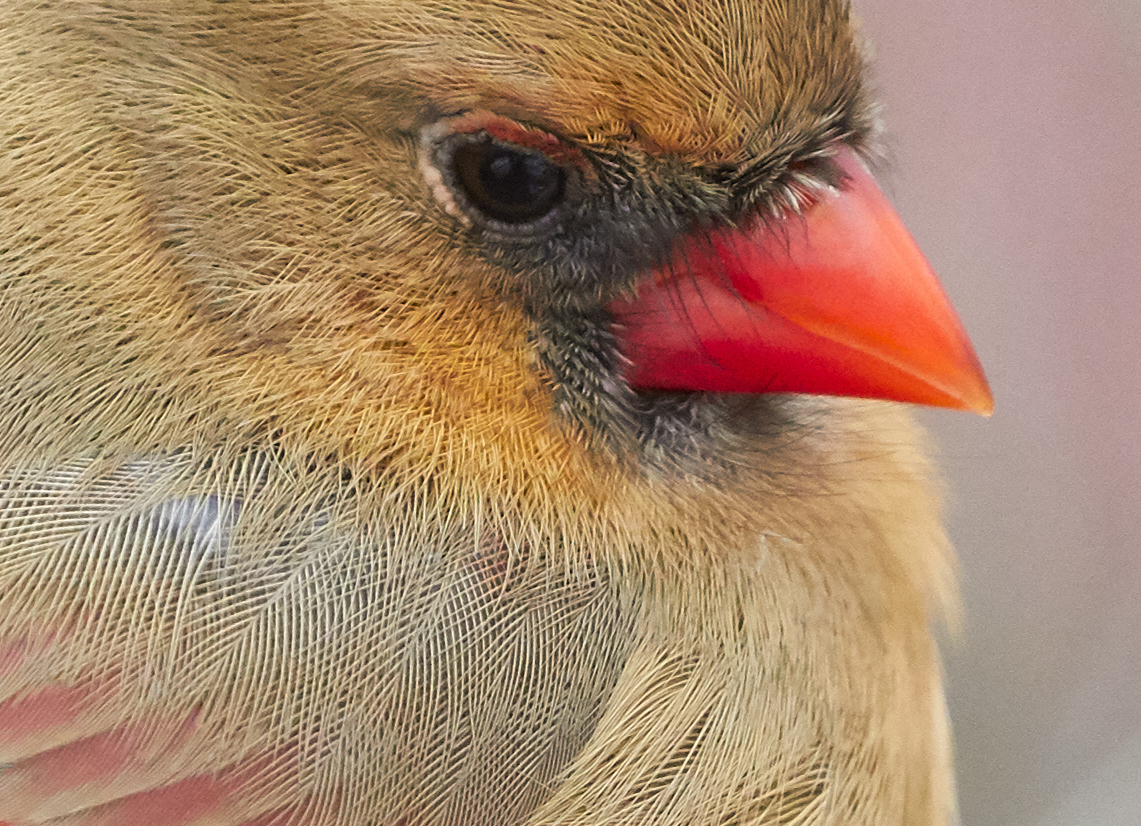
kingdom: Animalia
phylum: Chordata
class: Aves
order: Passeriformes
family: Cardinalidae
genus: Cardinalis
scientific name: Cardinalis cardinalis
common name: Northern cardinal
